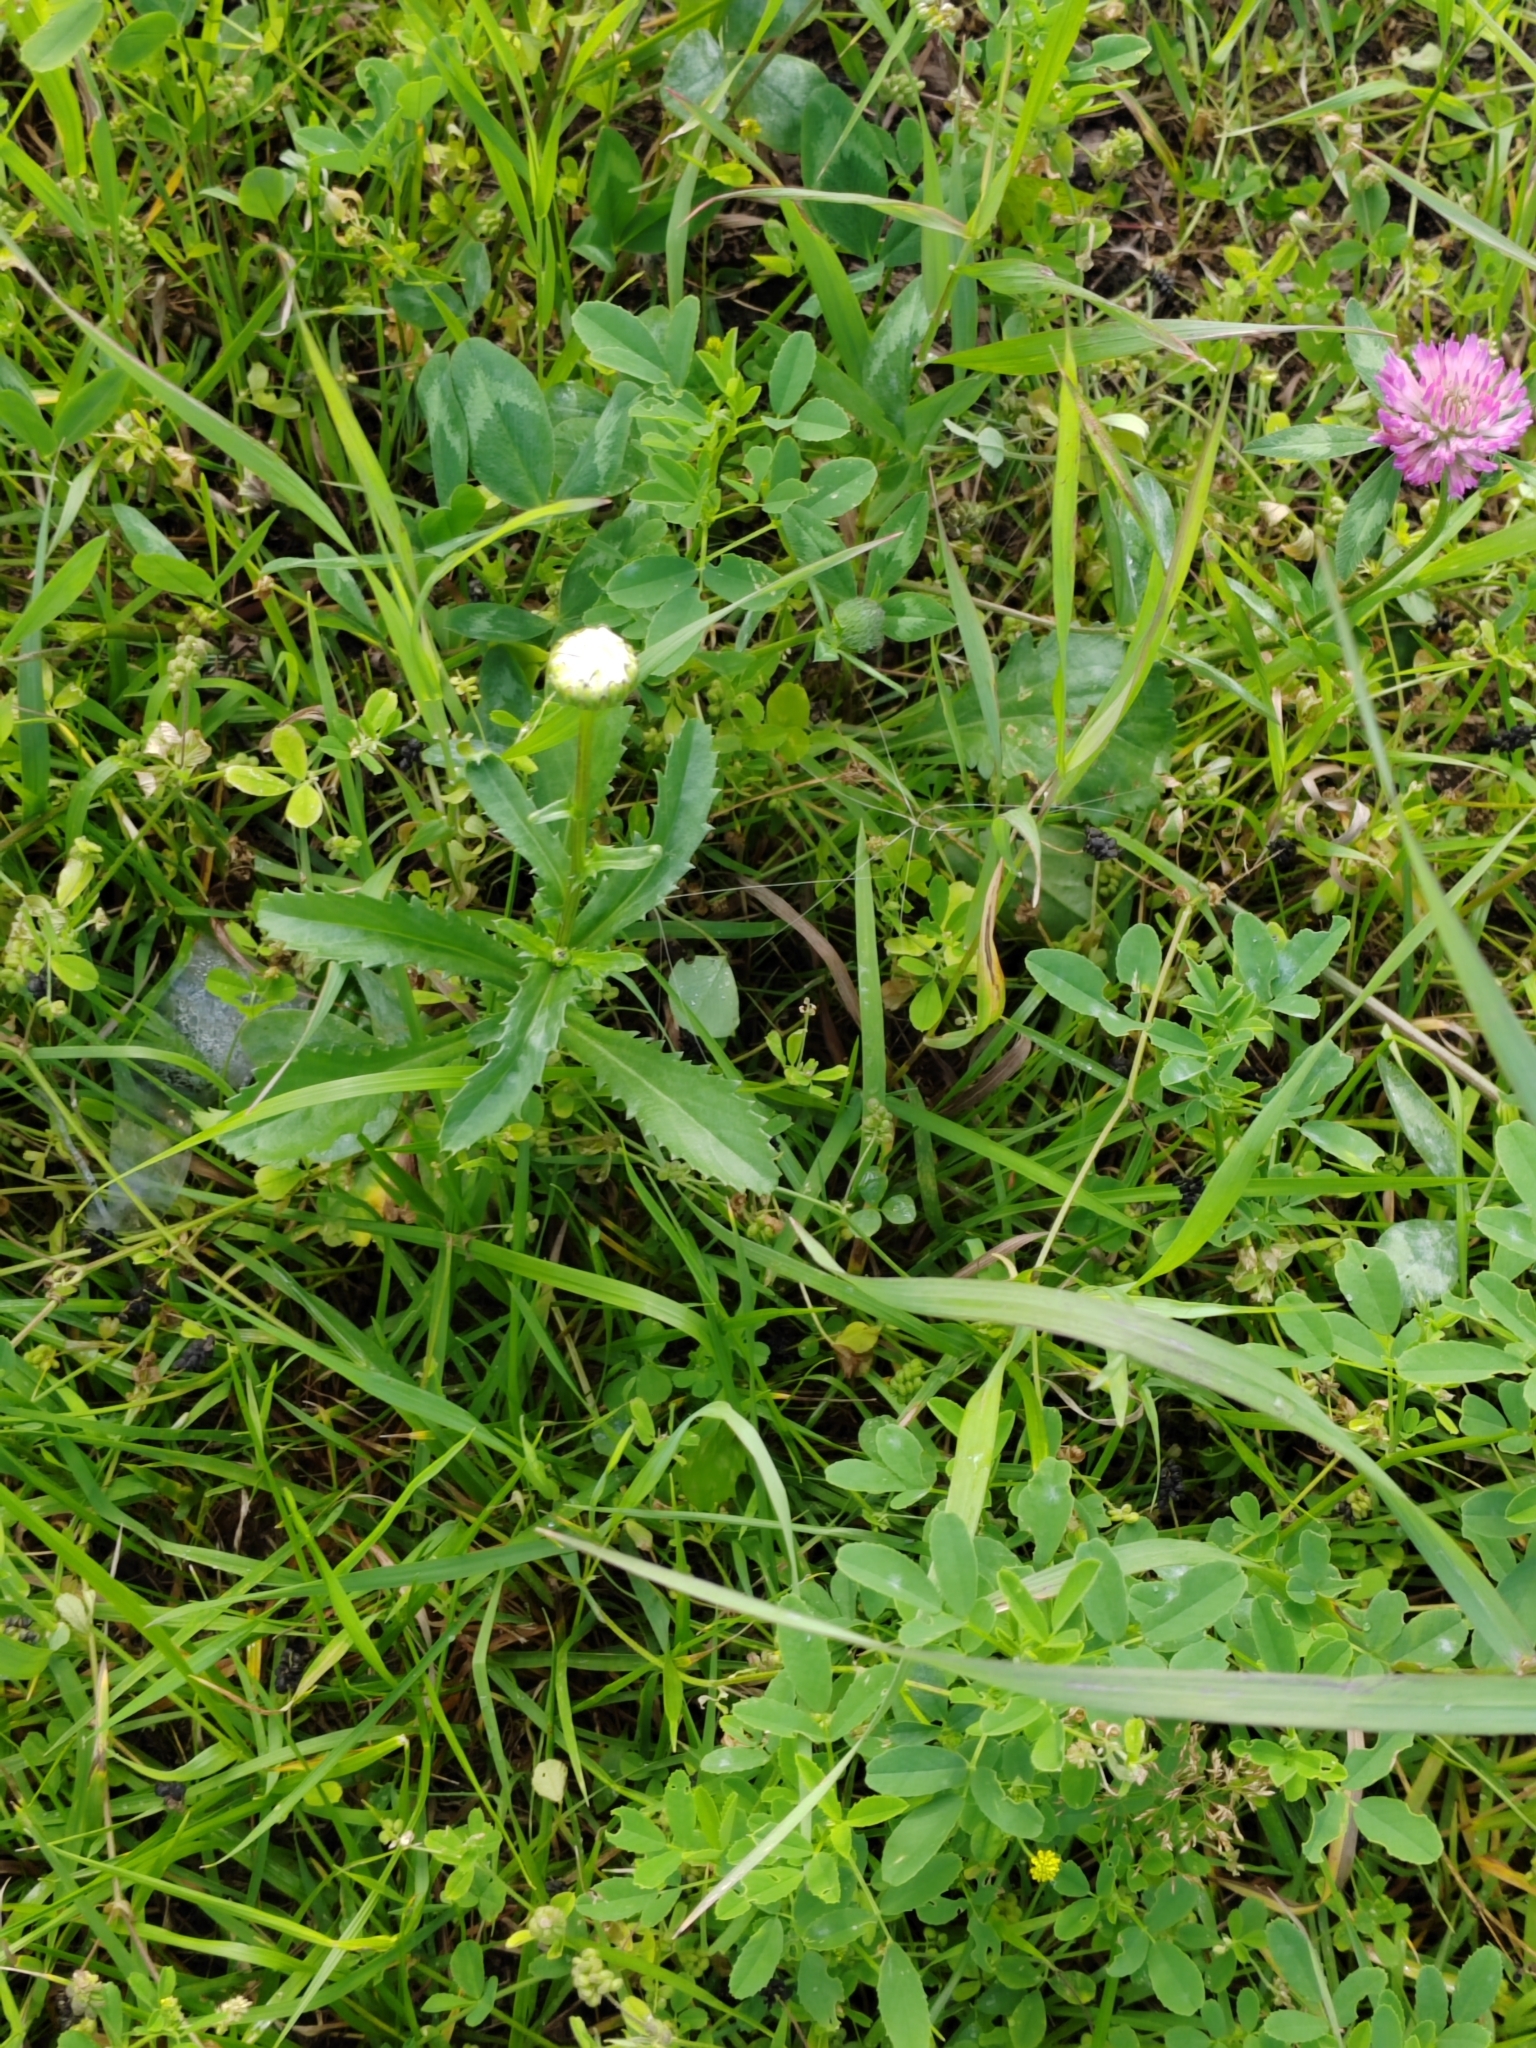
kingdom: Plantae
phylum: Tracheophyta
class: Magnoliopsida
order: Asterales
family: Asteraceae
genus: Leucanthemum
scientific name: Leucanthemum ircutianum
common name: Daisy
